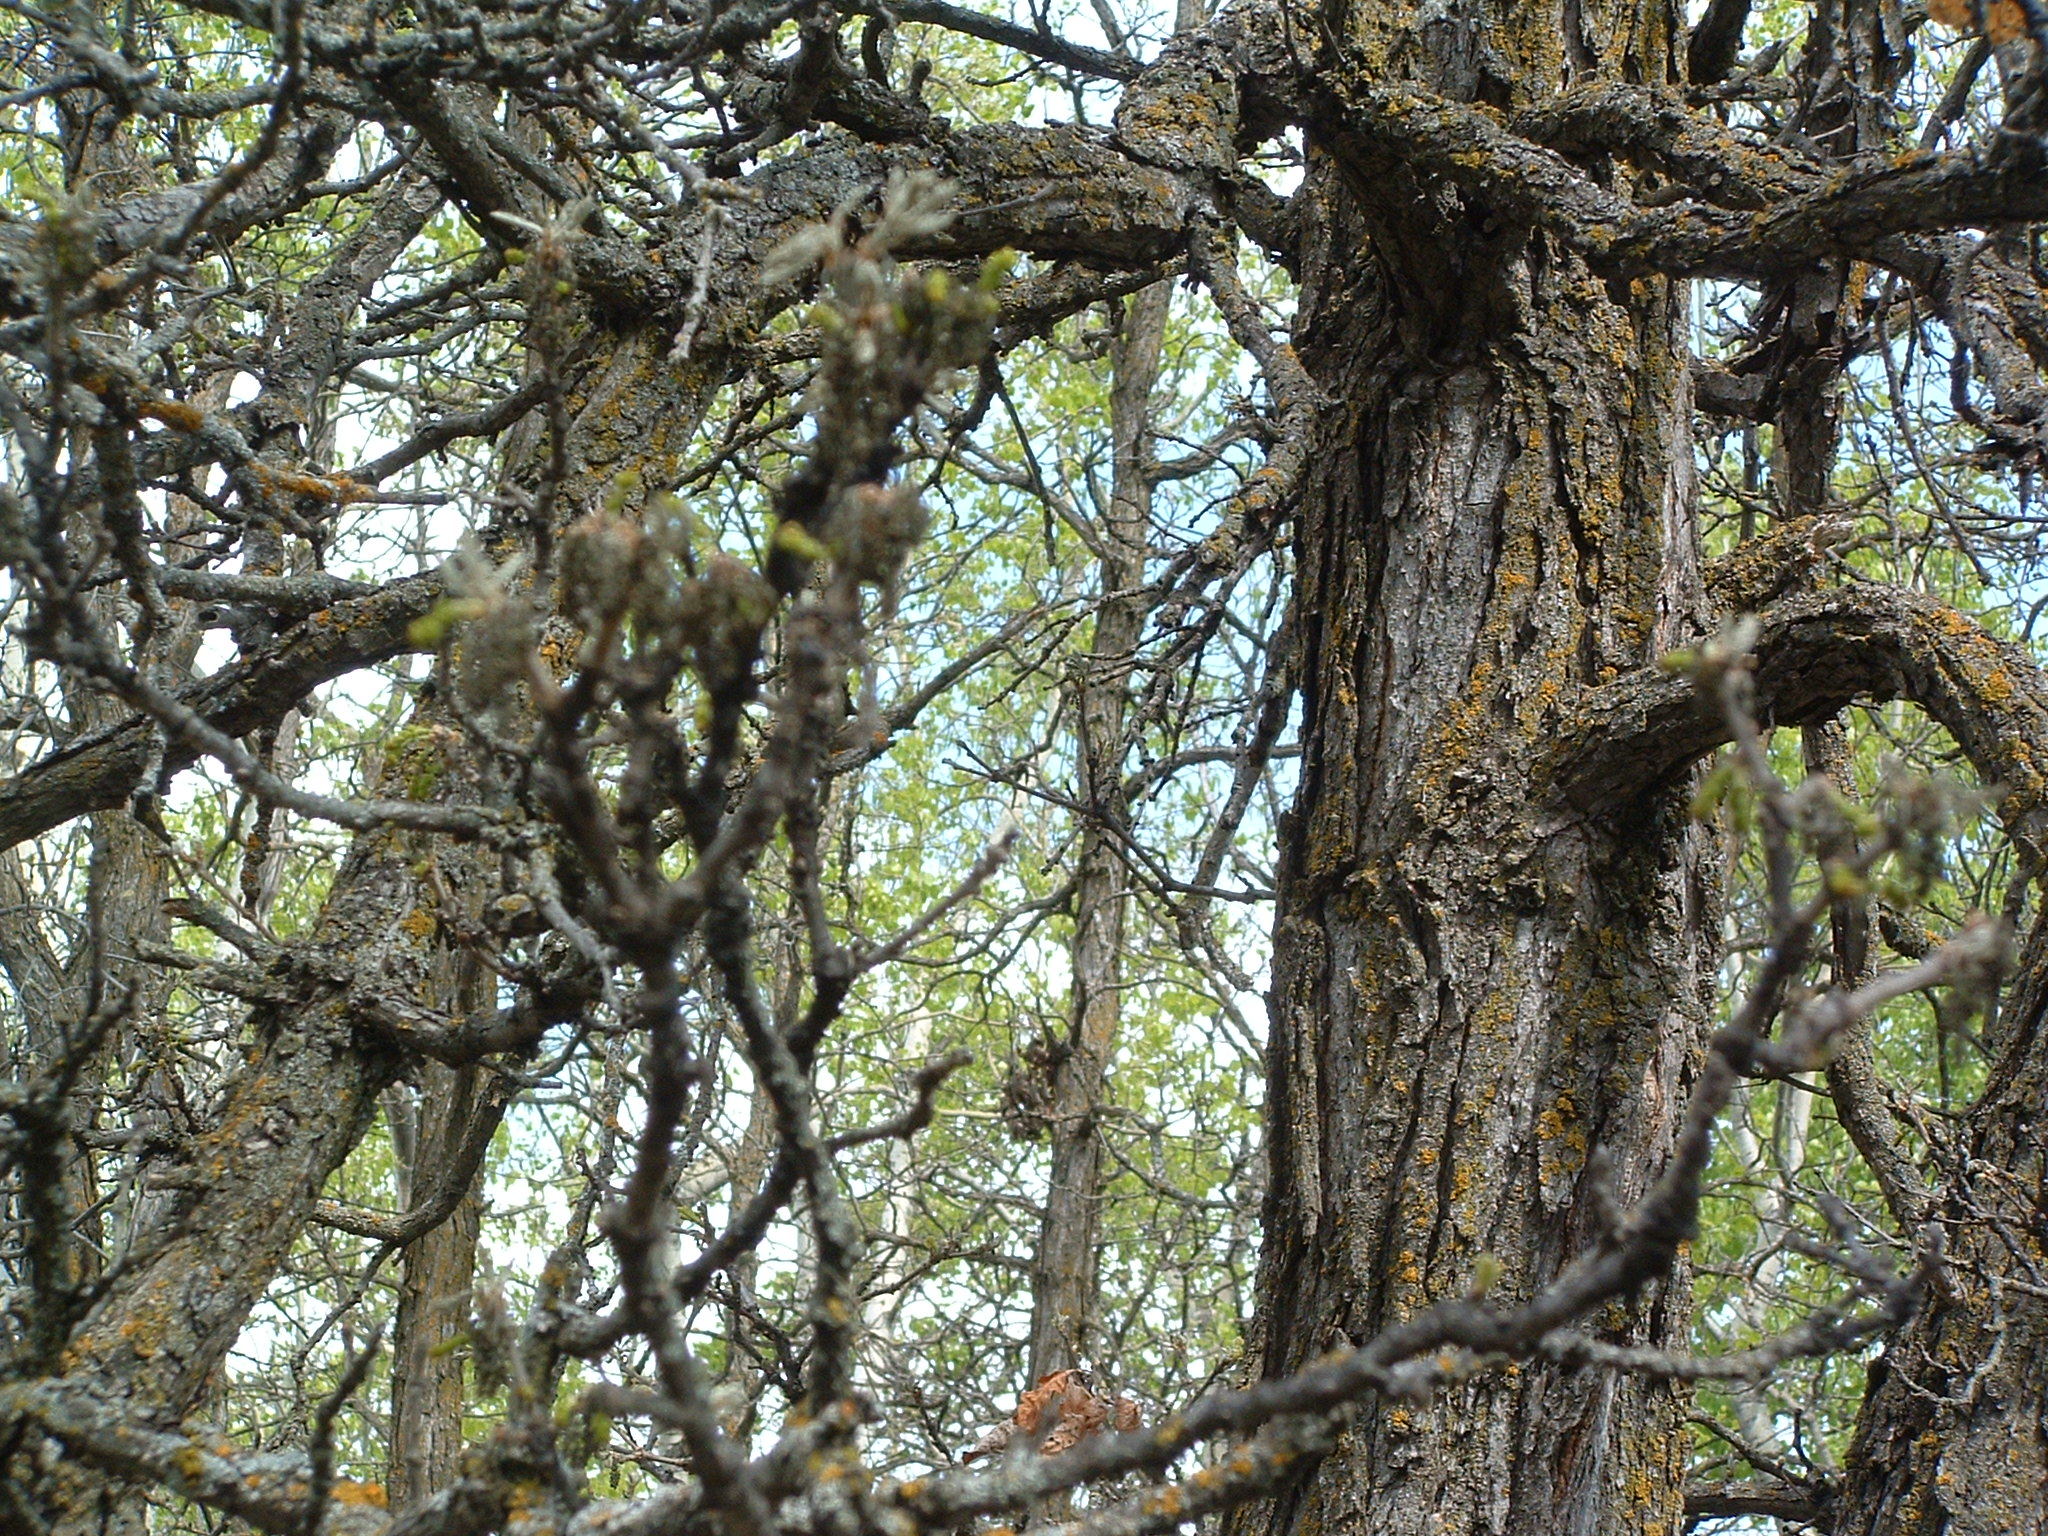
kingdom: Plantae
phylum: Tracheophyta
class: Magnoliopsida
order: Fagales
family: Fagaceae
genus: Quercus
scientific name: Quercus macrocarpa
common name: Bur oak
